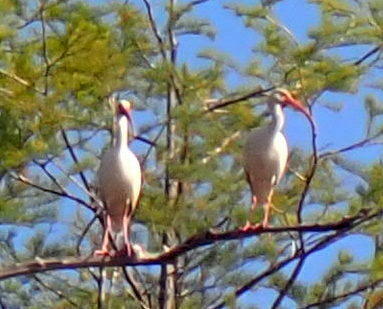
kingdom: Animalia
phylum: Chordata
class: Aves
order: Pelecaniformes
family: Threskiornithidae
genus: Eudocimus
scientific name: Eudocimus albus
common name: White ibis
